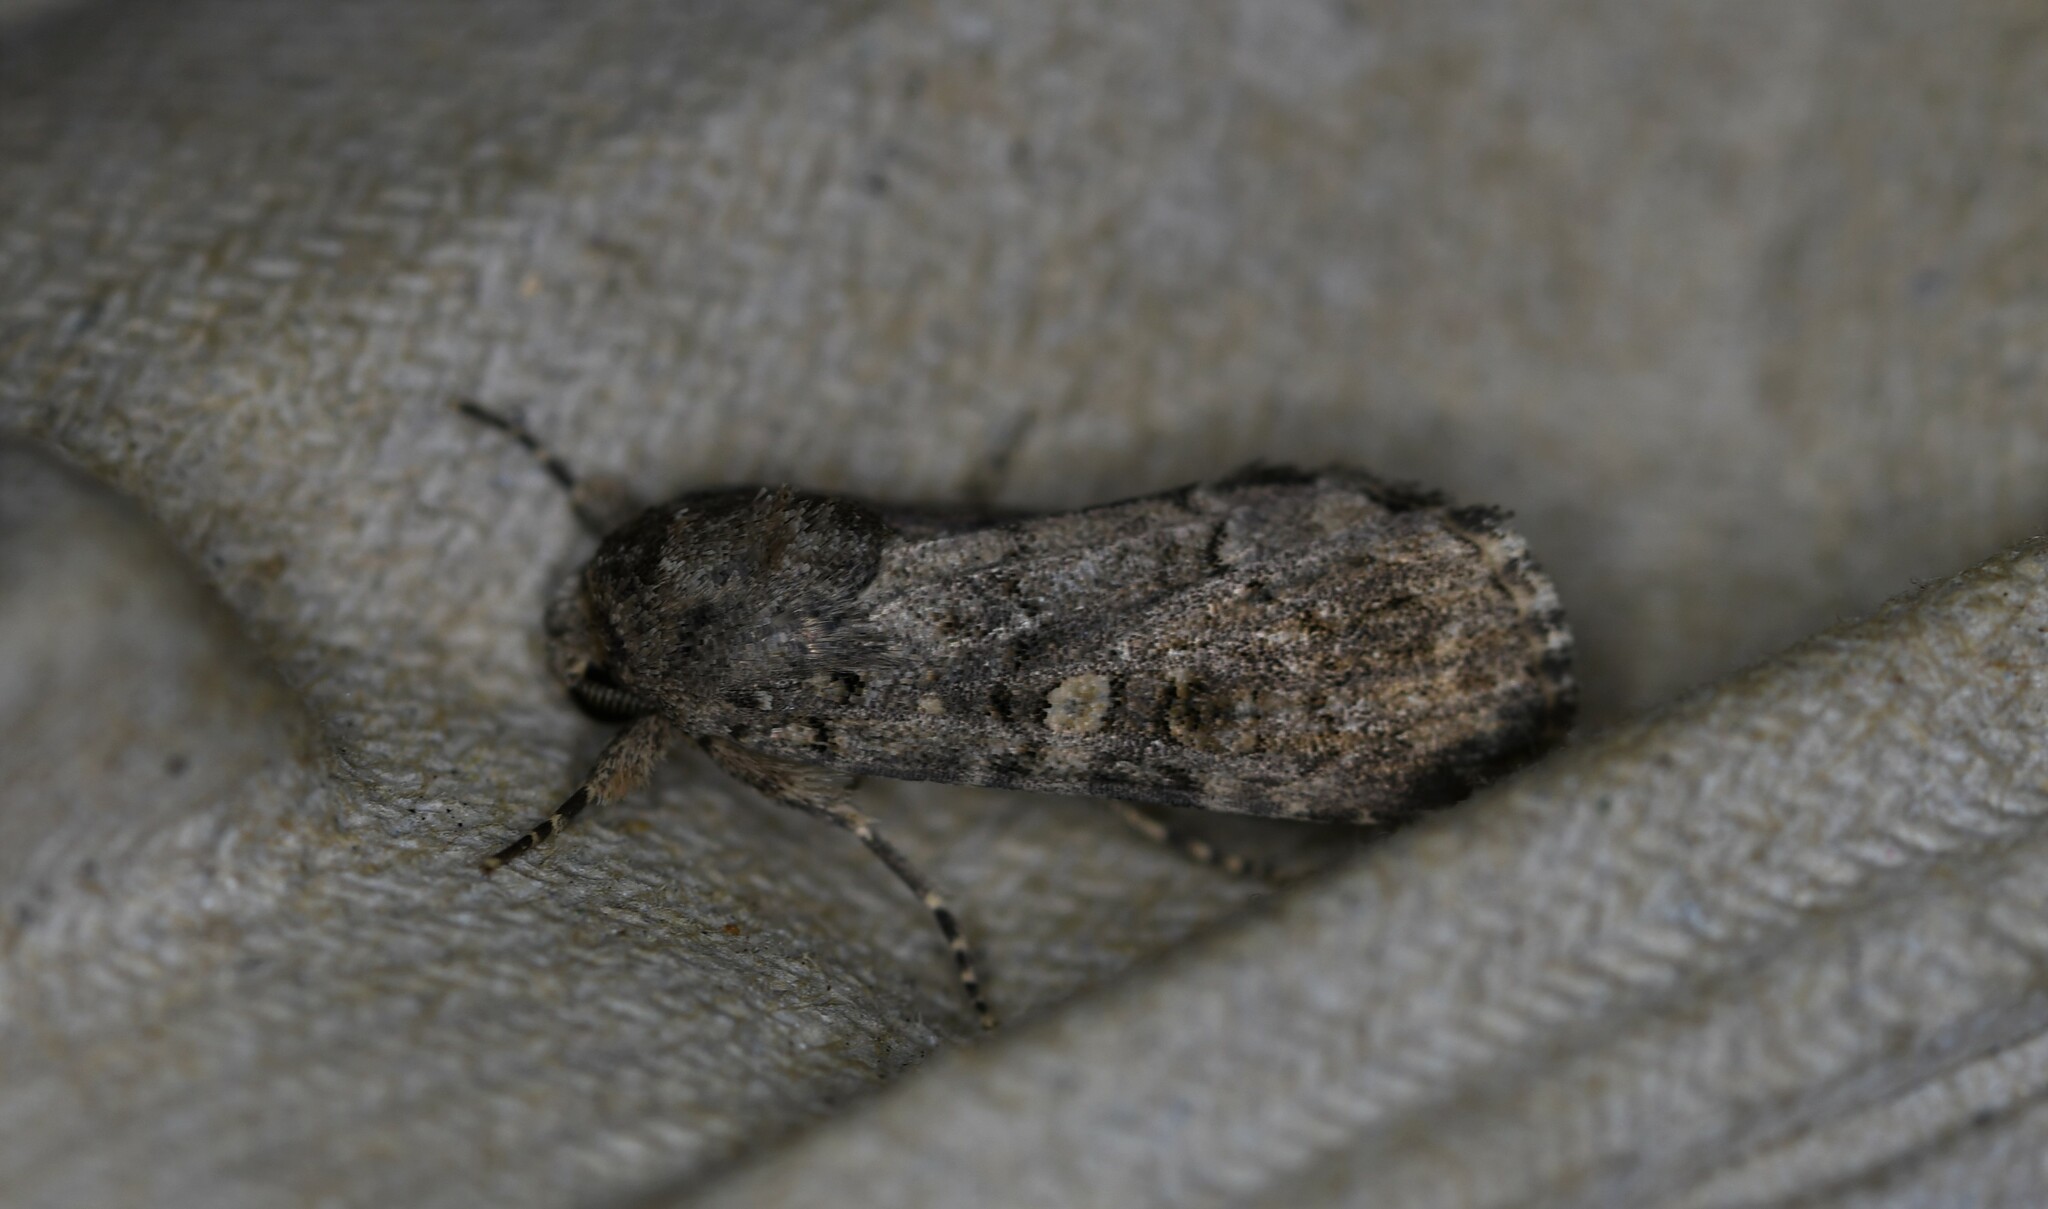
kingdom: Animalia
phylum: Arthropoda
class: Insecta
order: Lepidoptera
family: Noctuidae
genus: Spodoptera
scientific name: Spodoptera exigua
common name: Beet armyworm
